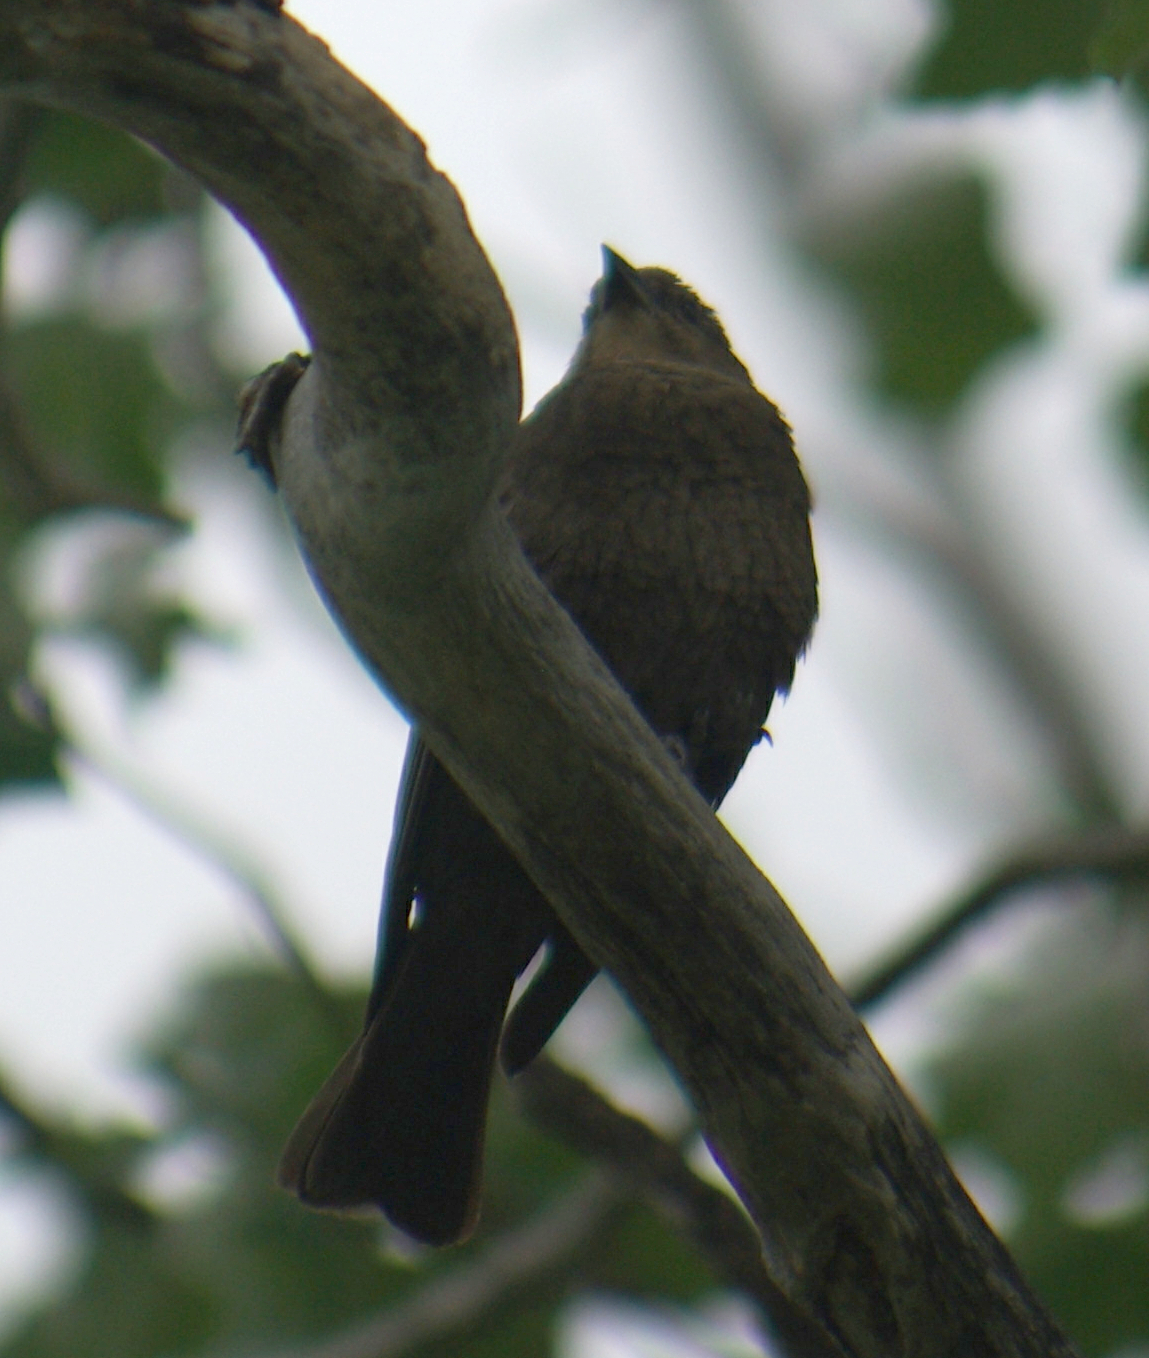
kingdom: Animalia
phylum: Chordata
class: Aves
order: Passeriformes
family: Icteridae
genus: Molothrus
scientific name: Molothrus ater
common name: Brown-headed cowbird
